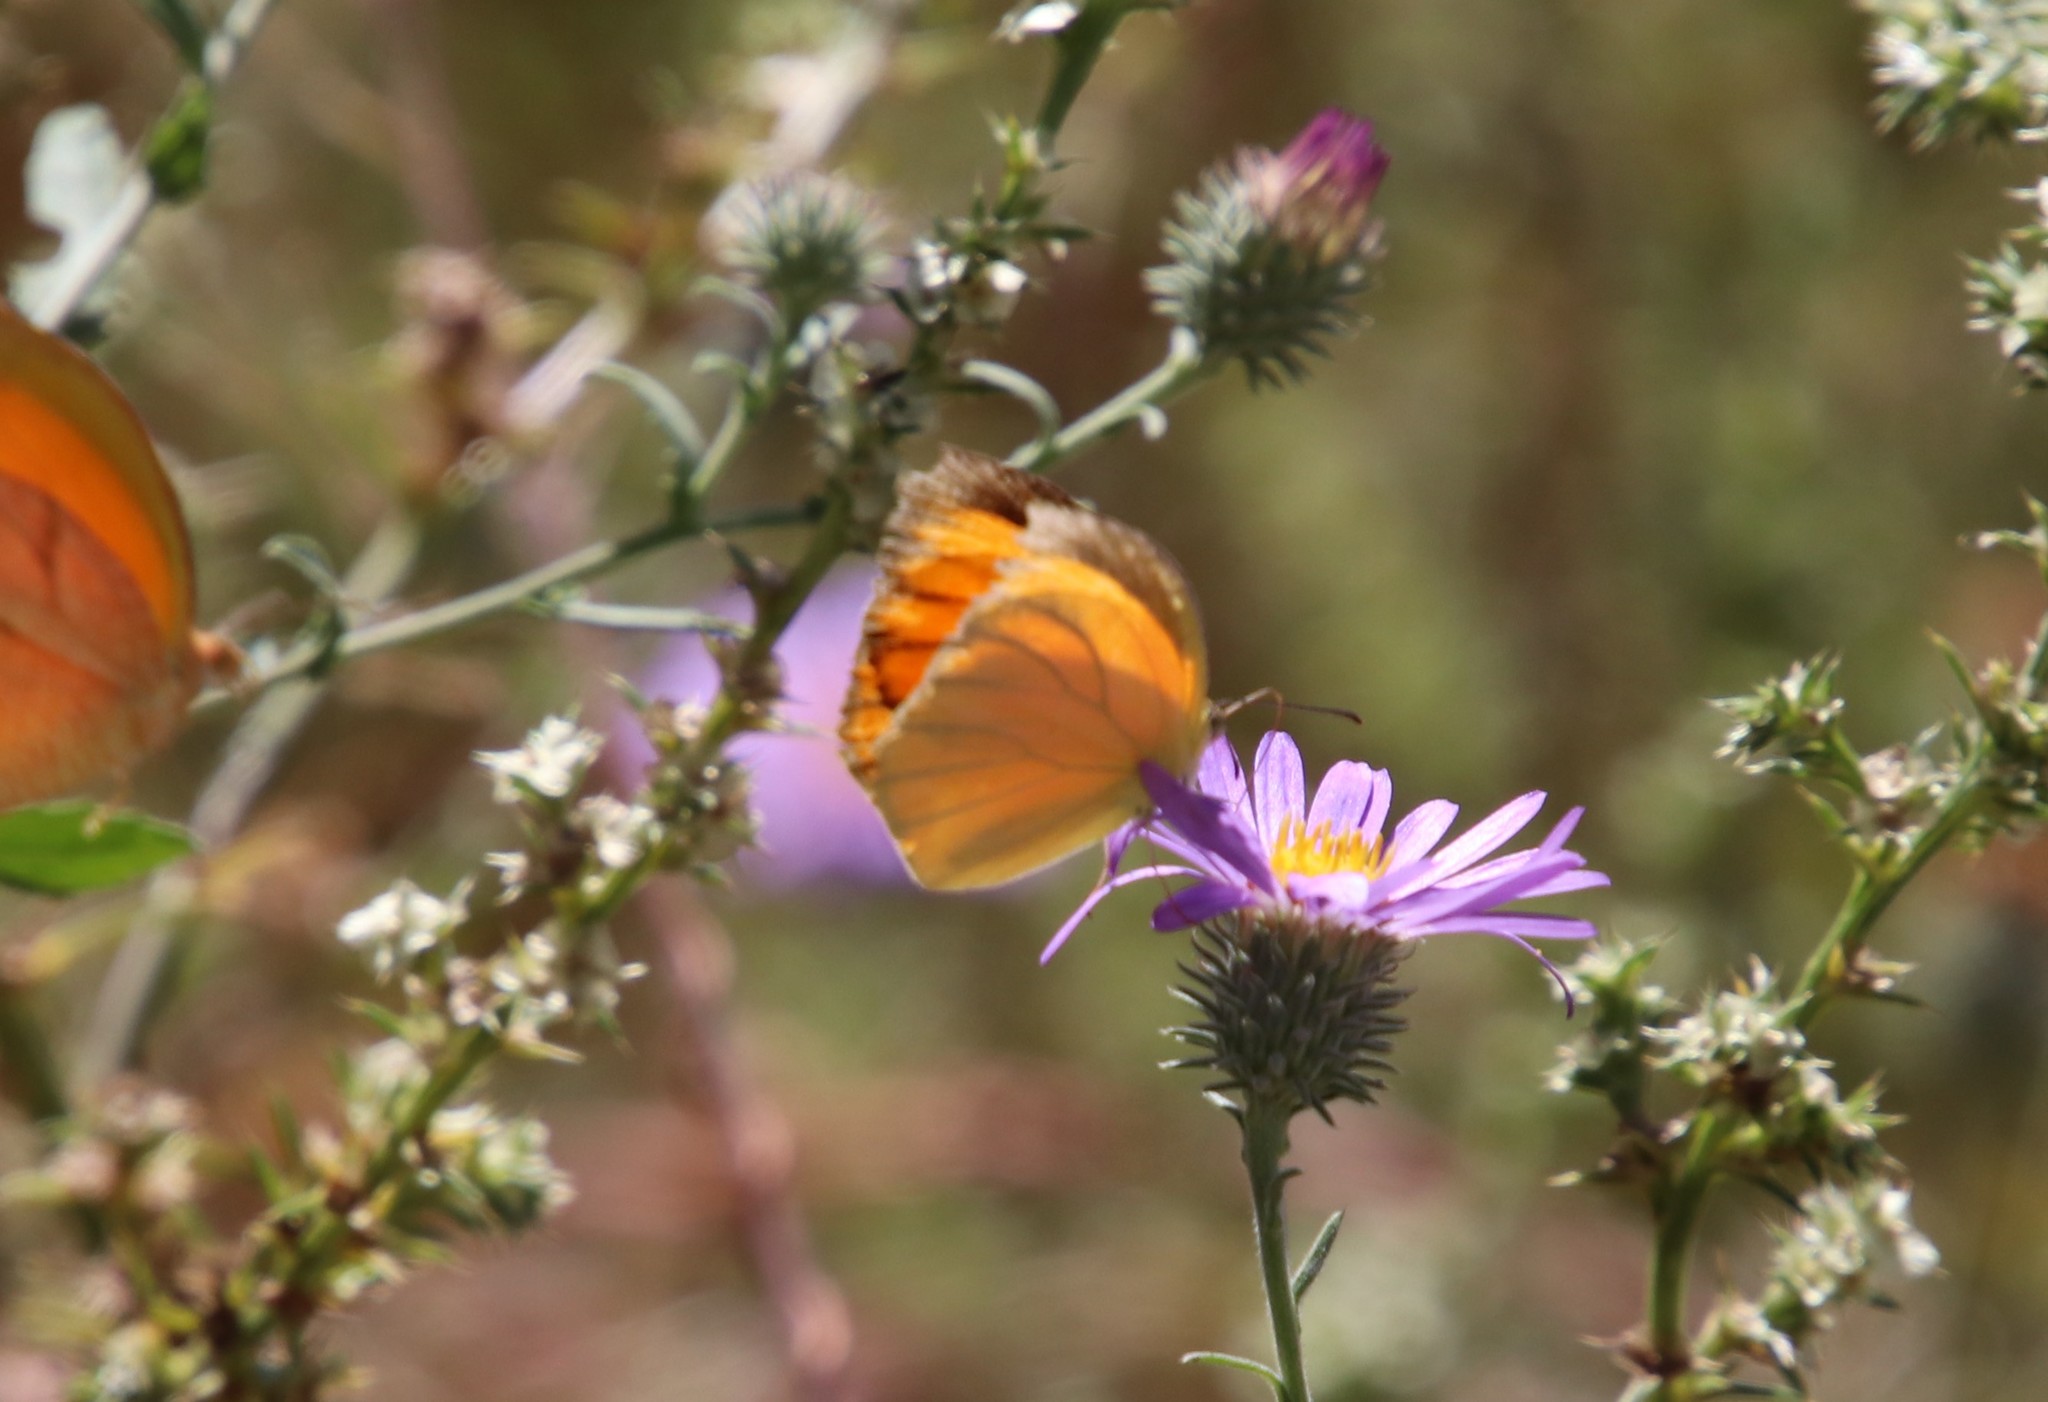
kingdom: Animalia
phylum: Arthropoda
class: Insecta
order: Lepidoptera
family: Pieridae
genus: Pyrisitia
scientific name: Pyrisitia proterpia
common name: Tailed orange
